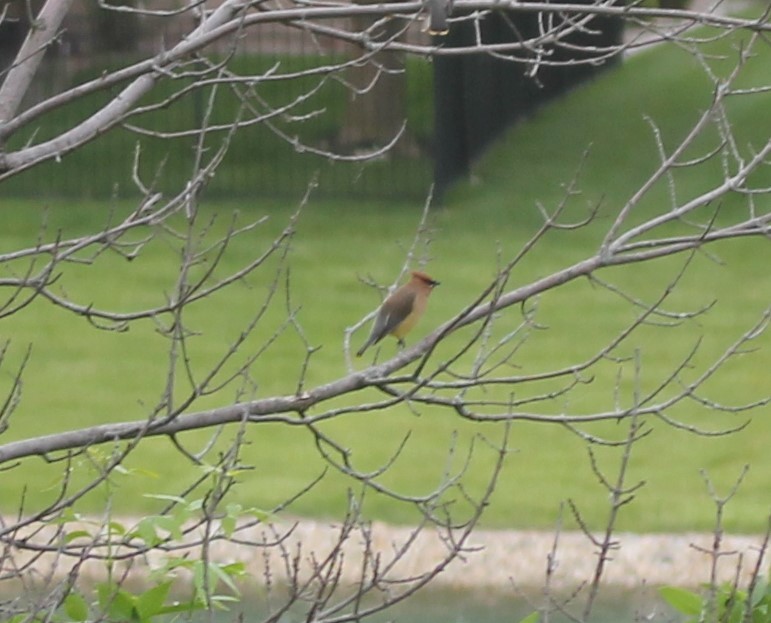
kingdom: Animalia
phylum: Chordata
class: Aves
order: Passeriformes
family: Bombycillidae
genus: Bombycilla
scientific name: Bombycilla cedrorum
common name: Cedar waxwing
